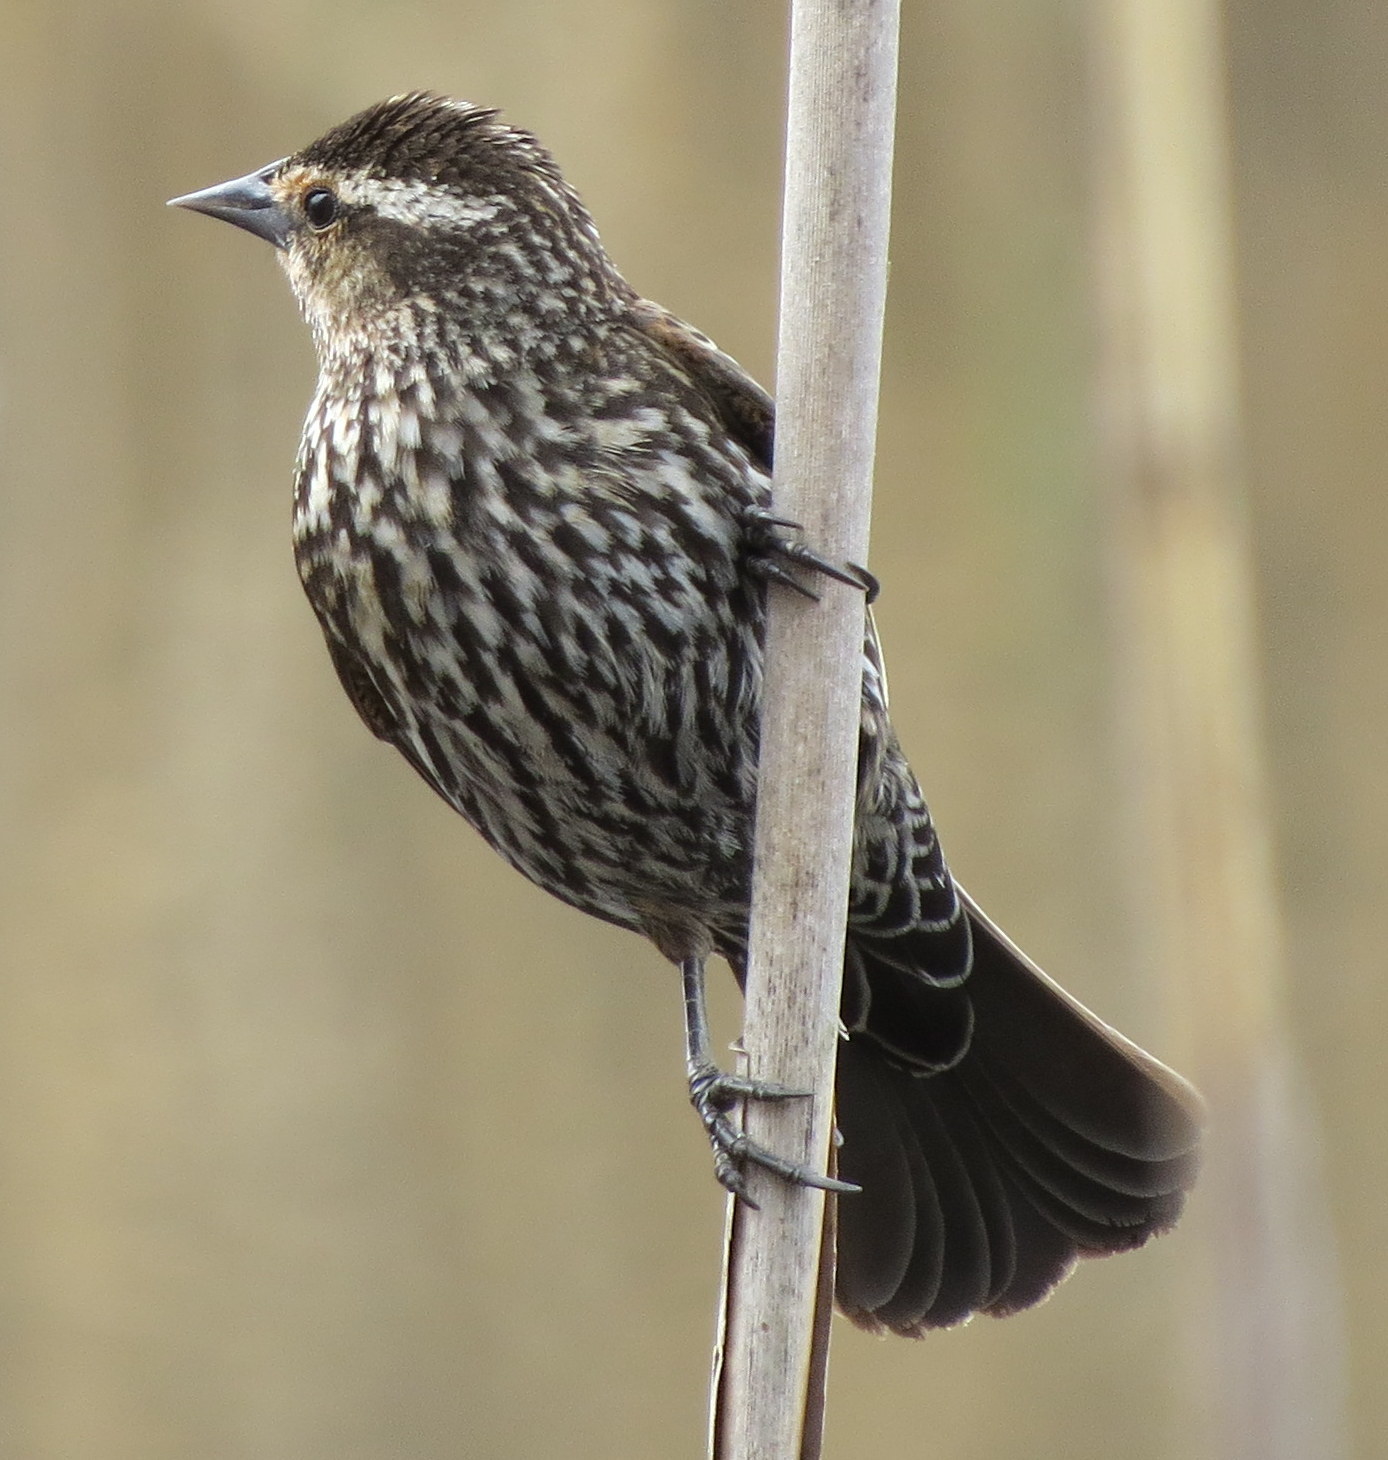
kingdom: Animalia
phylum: Chordata
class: Aves
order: Passeriformes
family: Icteridae
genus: Agelaius
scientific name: Agelaius phoeniceus
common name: Red-winged blackbird
